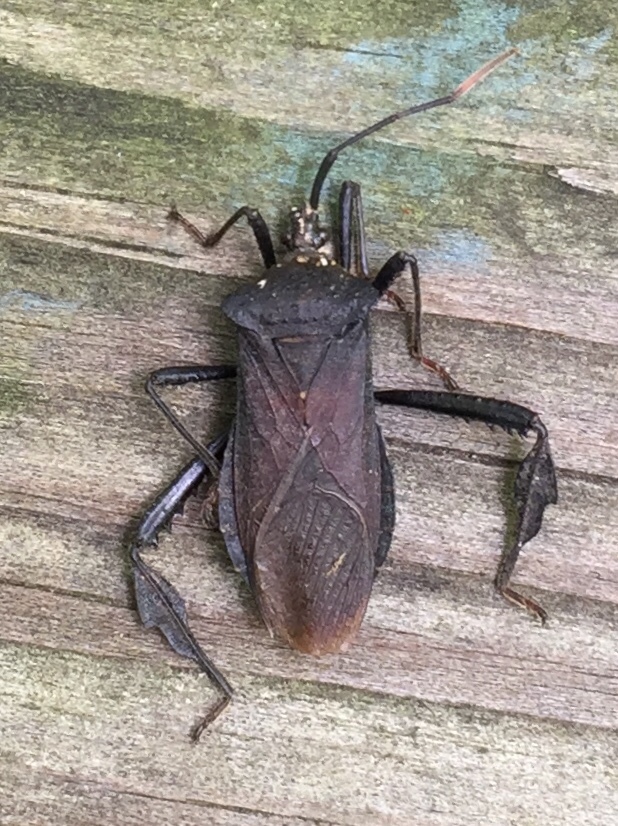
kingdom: Animalia
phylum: Arthropoda
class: Insecta
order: Hemiptera
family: Coreidae
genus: Acanthocephala
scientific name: Acanthocephala terminalis
